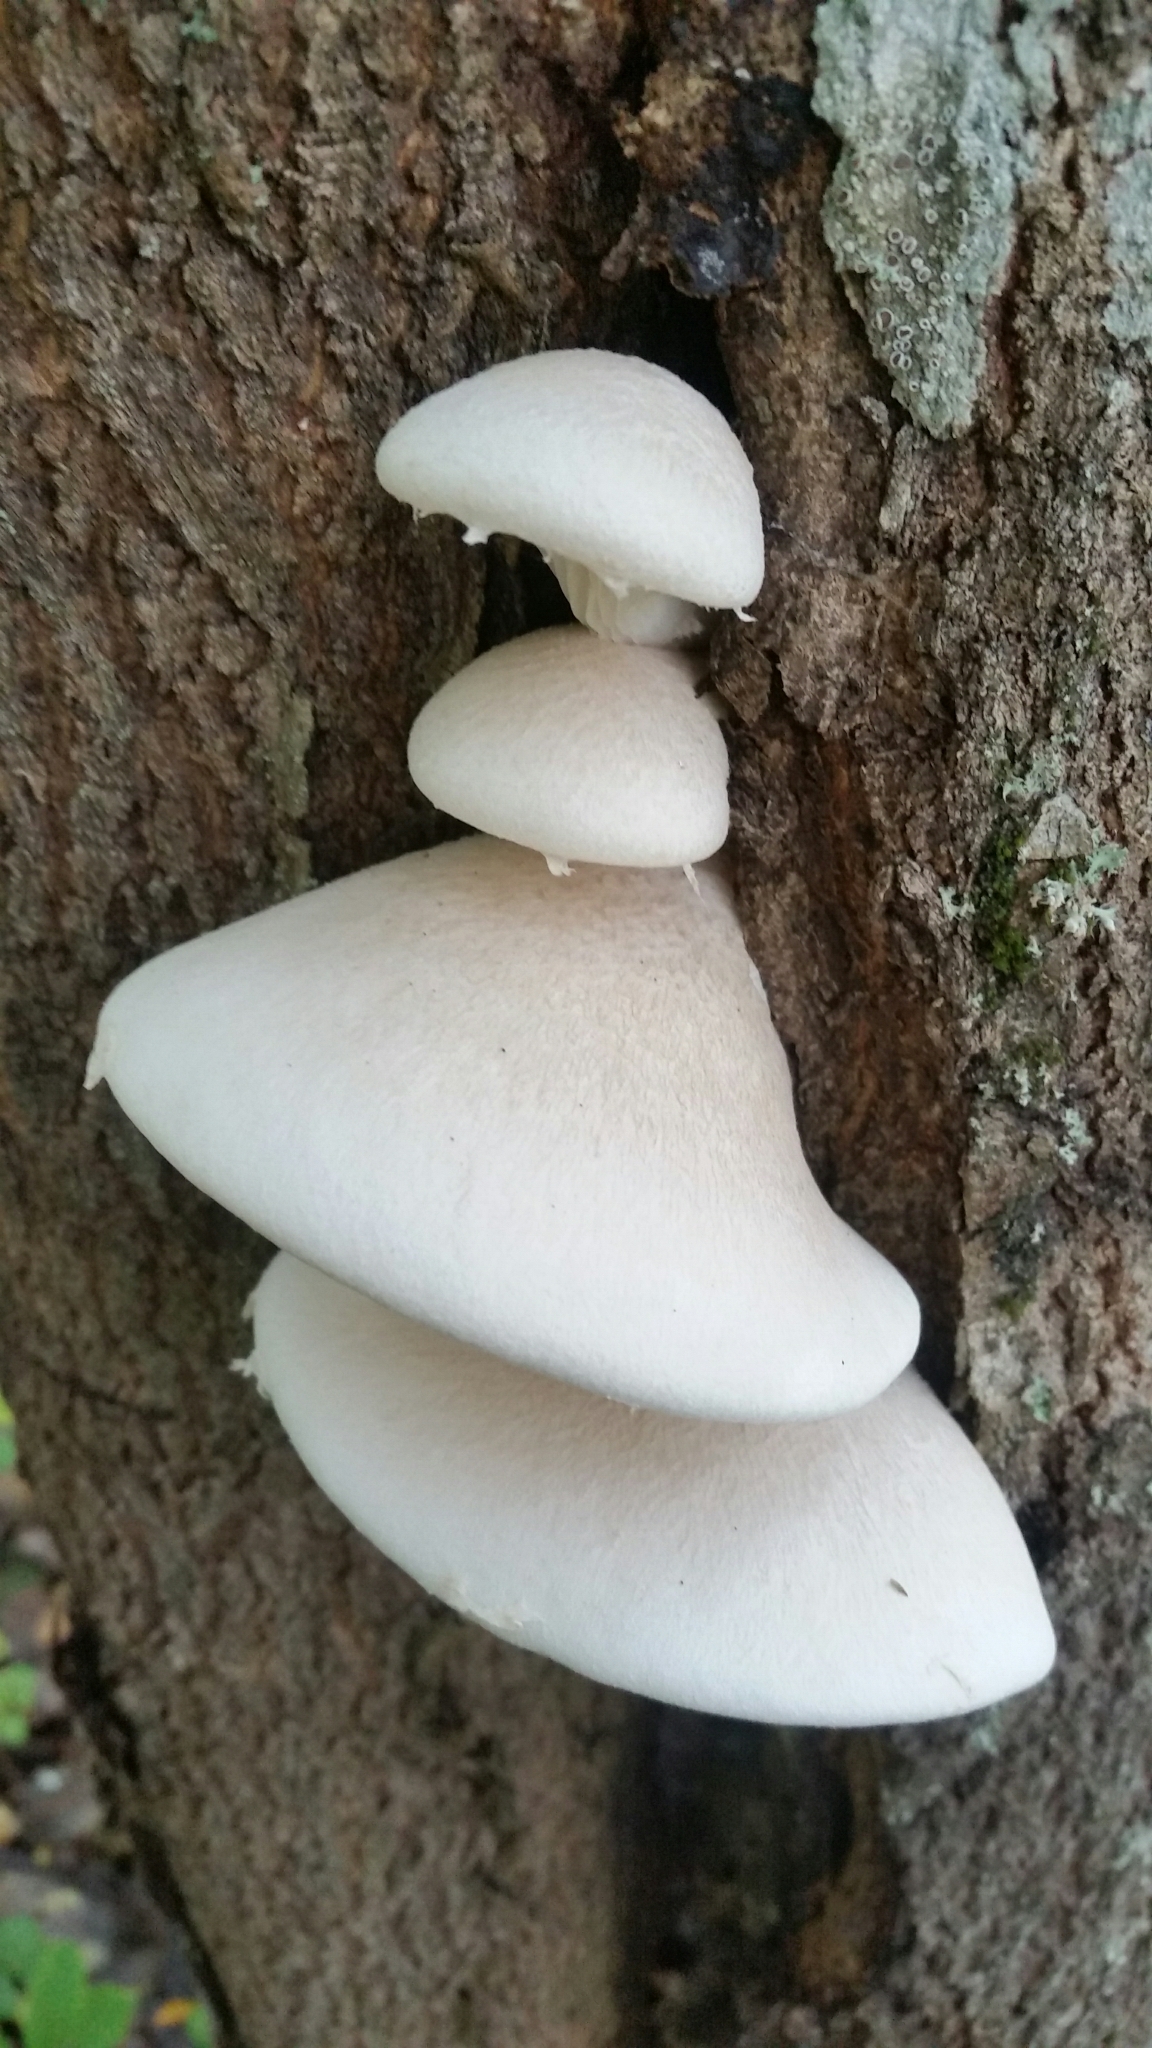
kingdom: Fungi
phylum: Basidiomycota
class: Agaricomycetes
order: Agaricales
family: Pleurotaceae
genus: Pleurotus
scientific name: Pleurotus dryinus
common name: Veiled oyster
